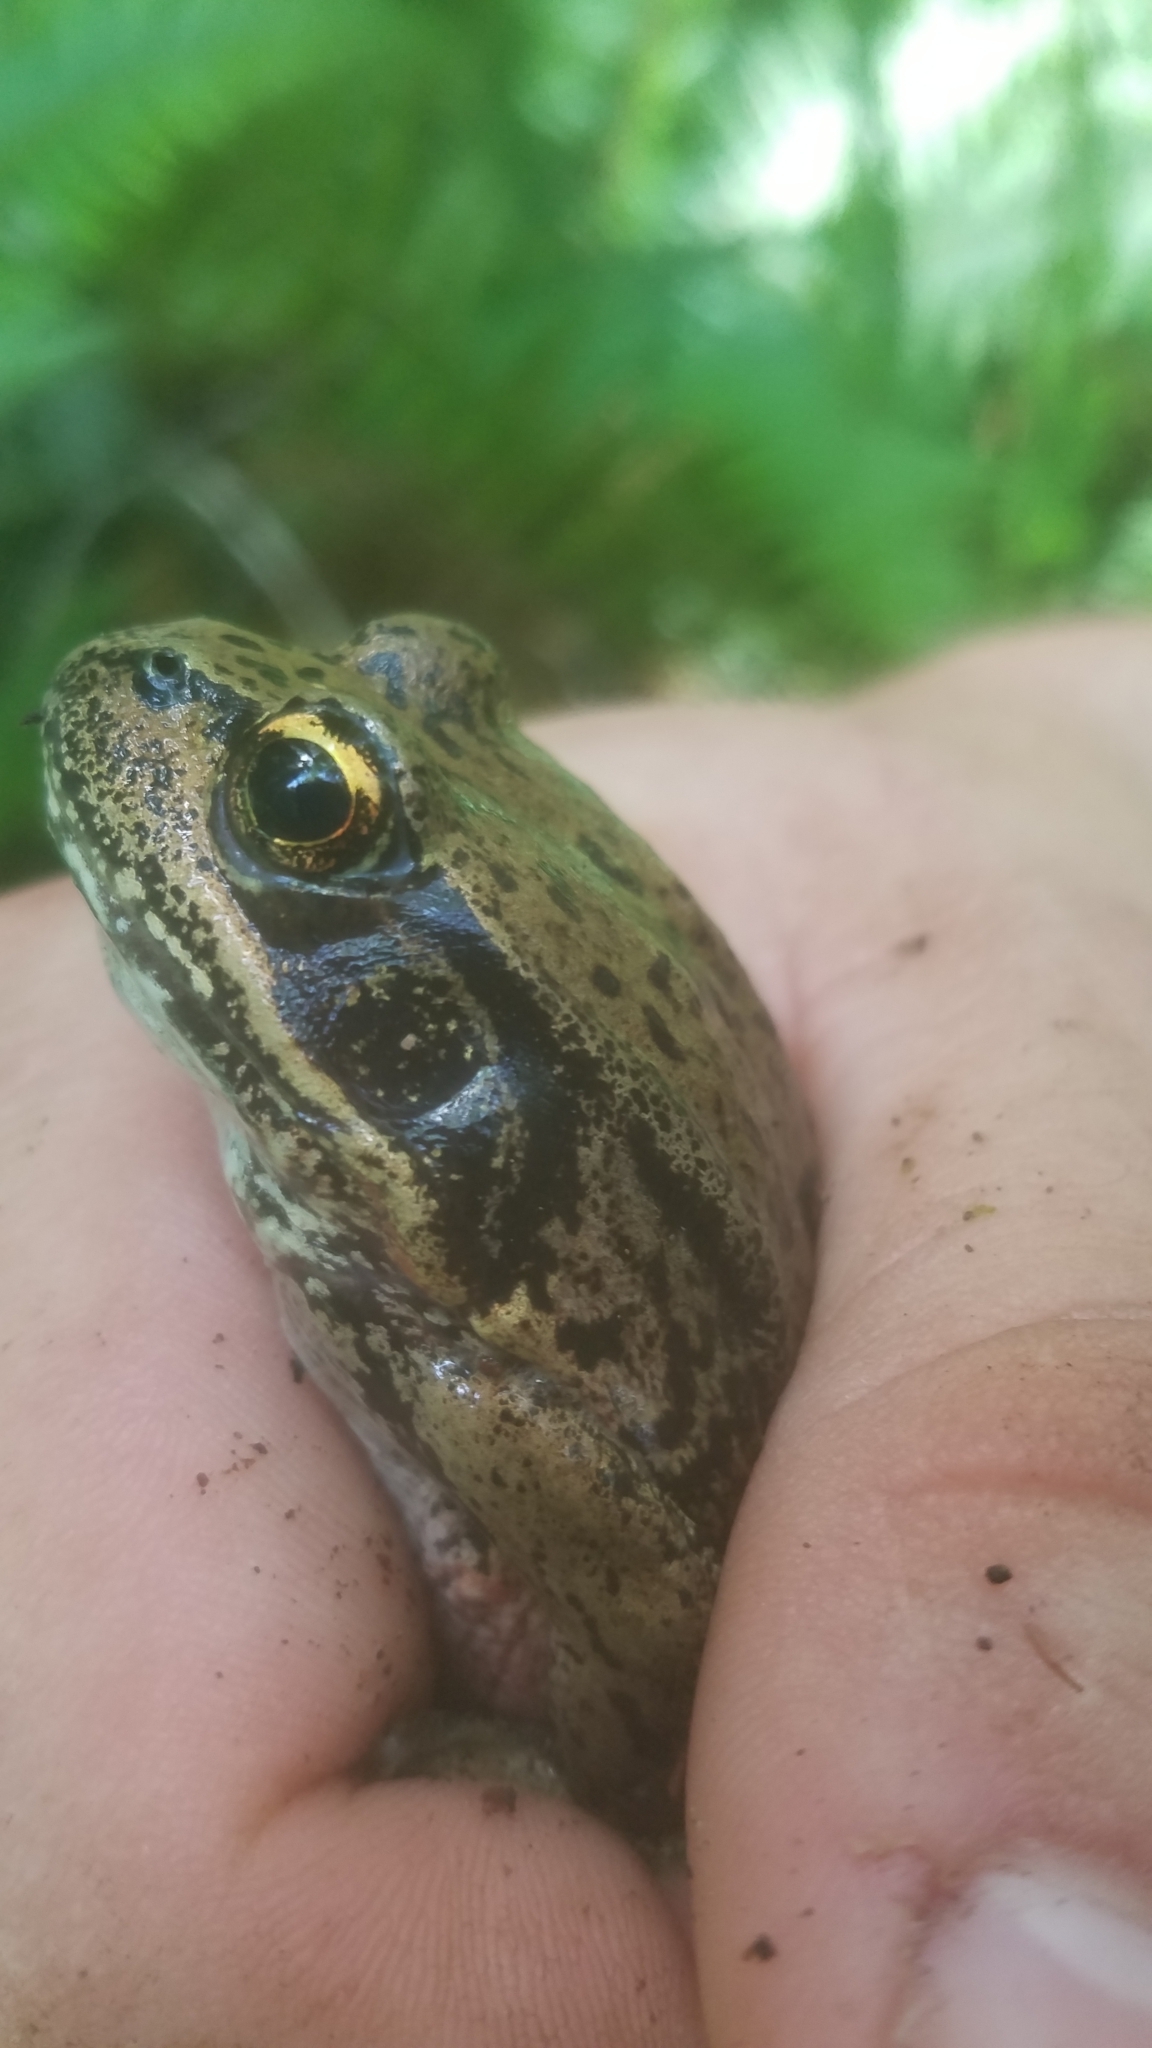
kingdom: Animalia
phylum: Chordata
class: Amphibia
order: Anura
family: Ranidae
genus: Rana
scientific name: Rana aurora
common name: Red-legged frog
